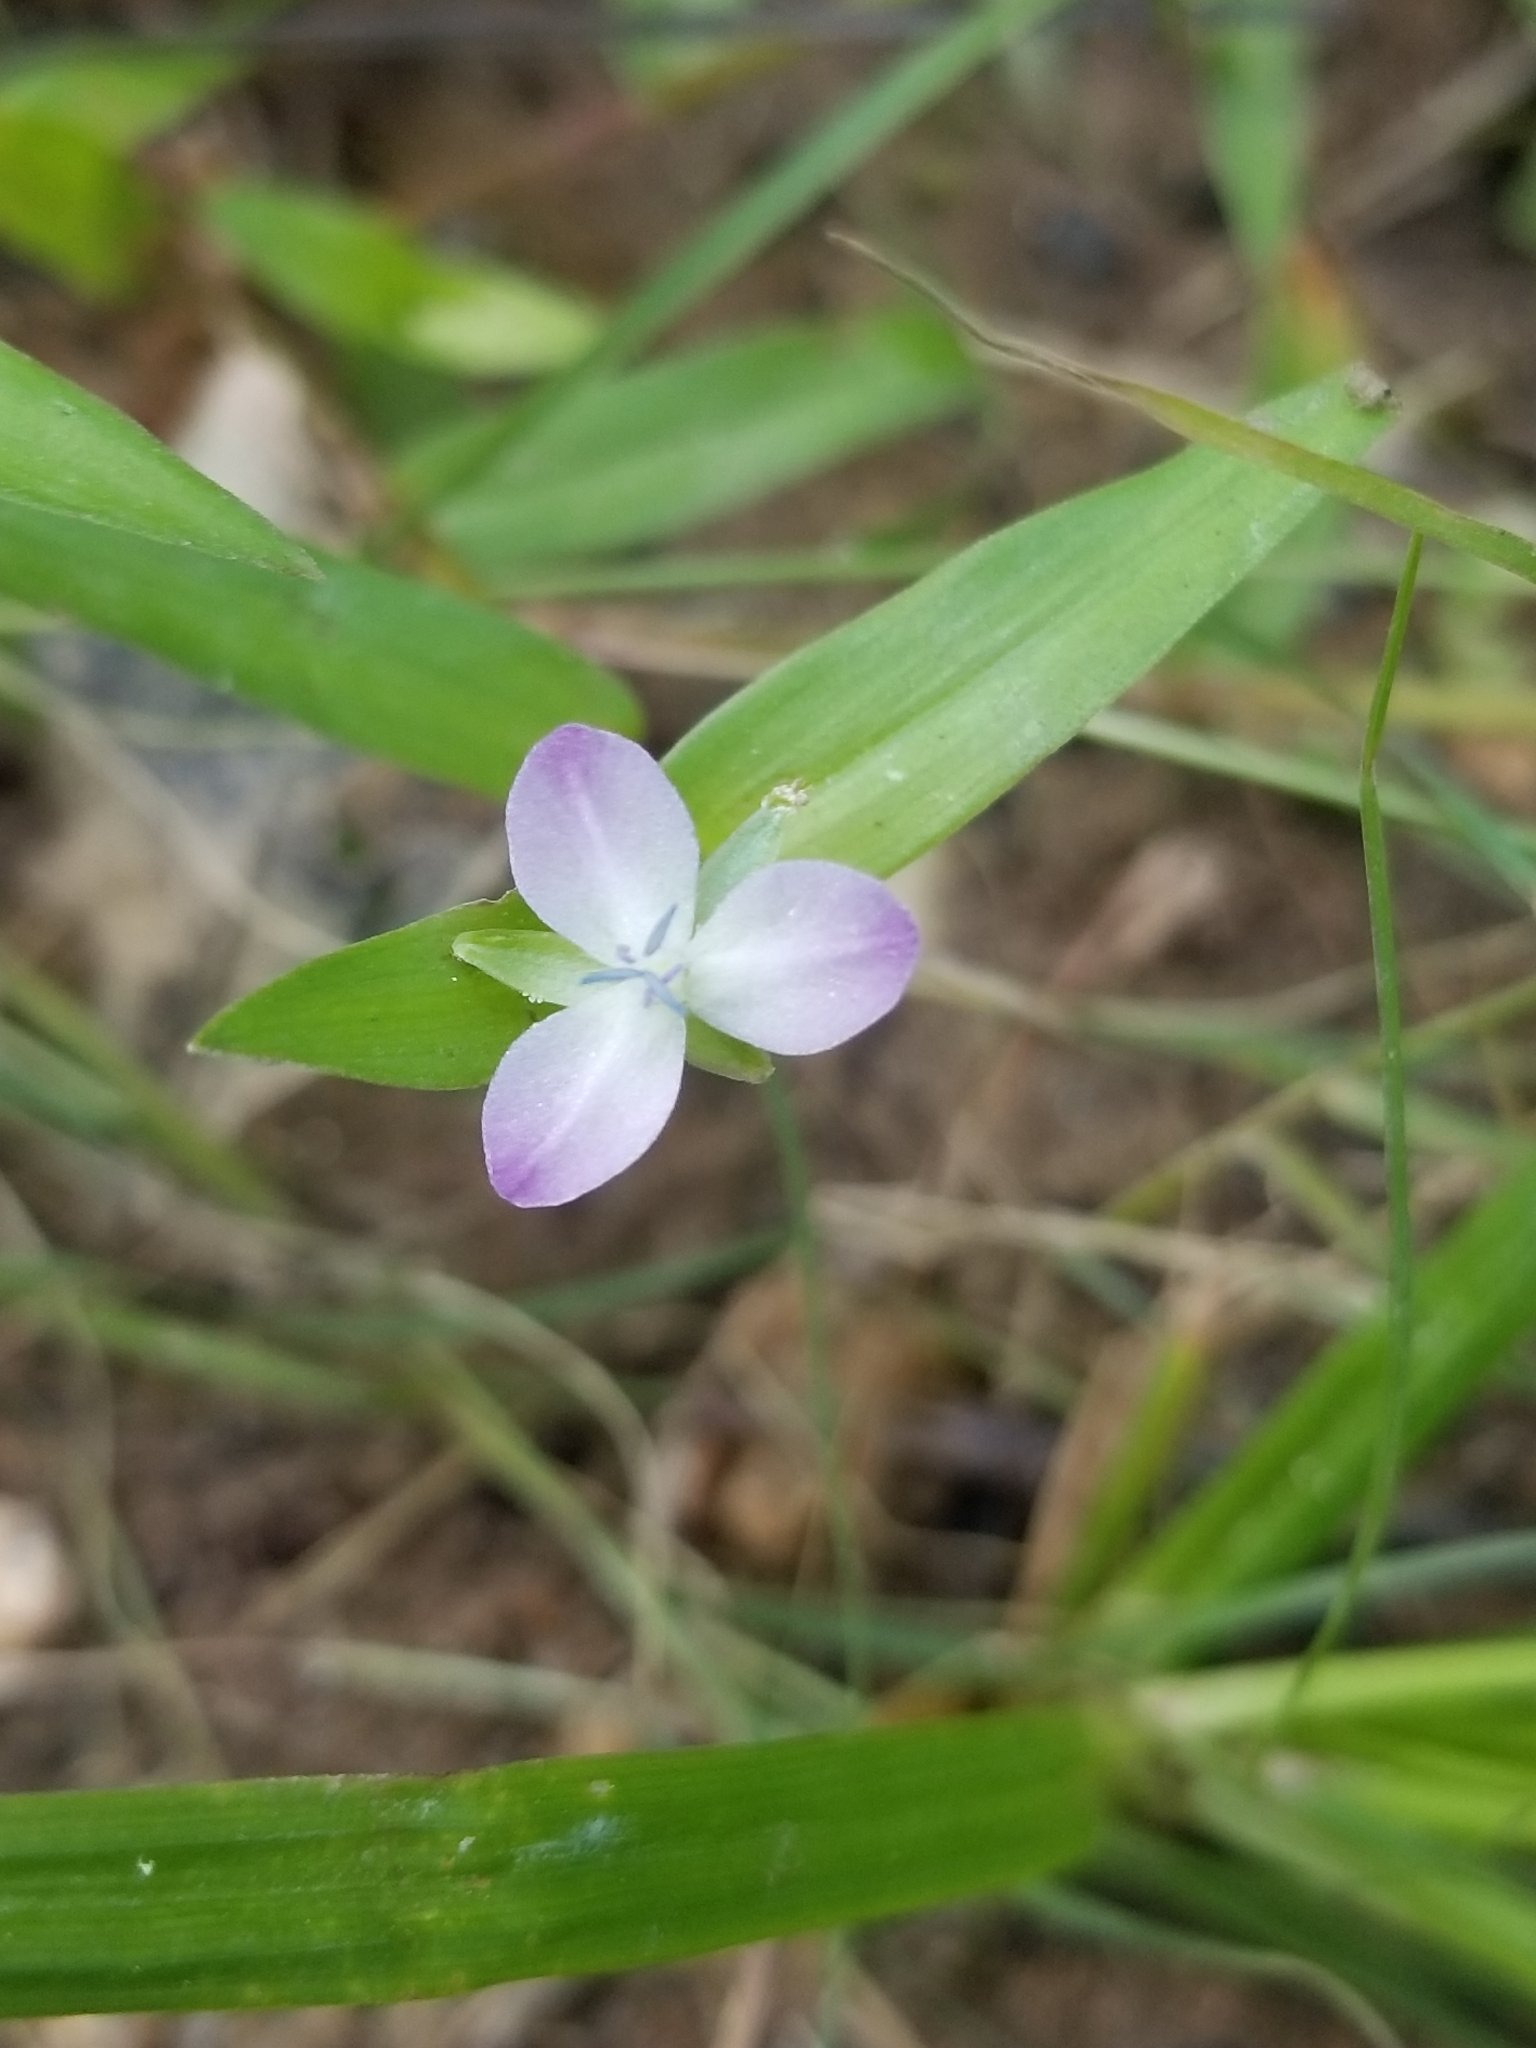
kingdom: Plantae
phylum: Tracheophyta
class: Liliopsida
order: Commelinales
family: Commelinaceae
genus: Murdannia
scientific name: Murdannia keisak
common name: Wartremoving herb
